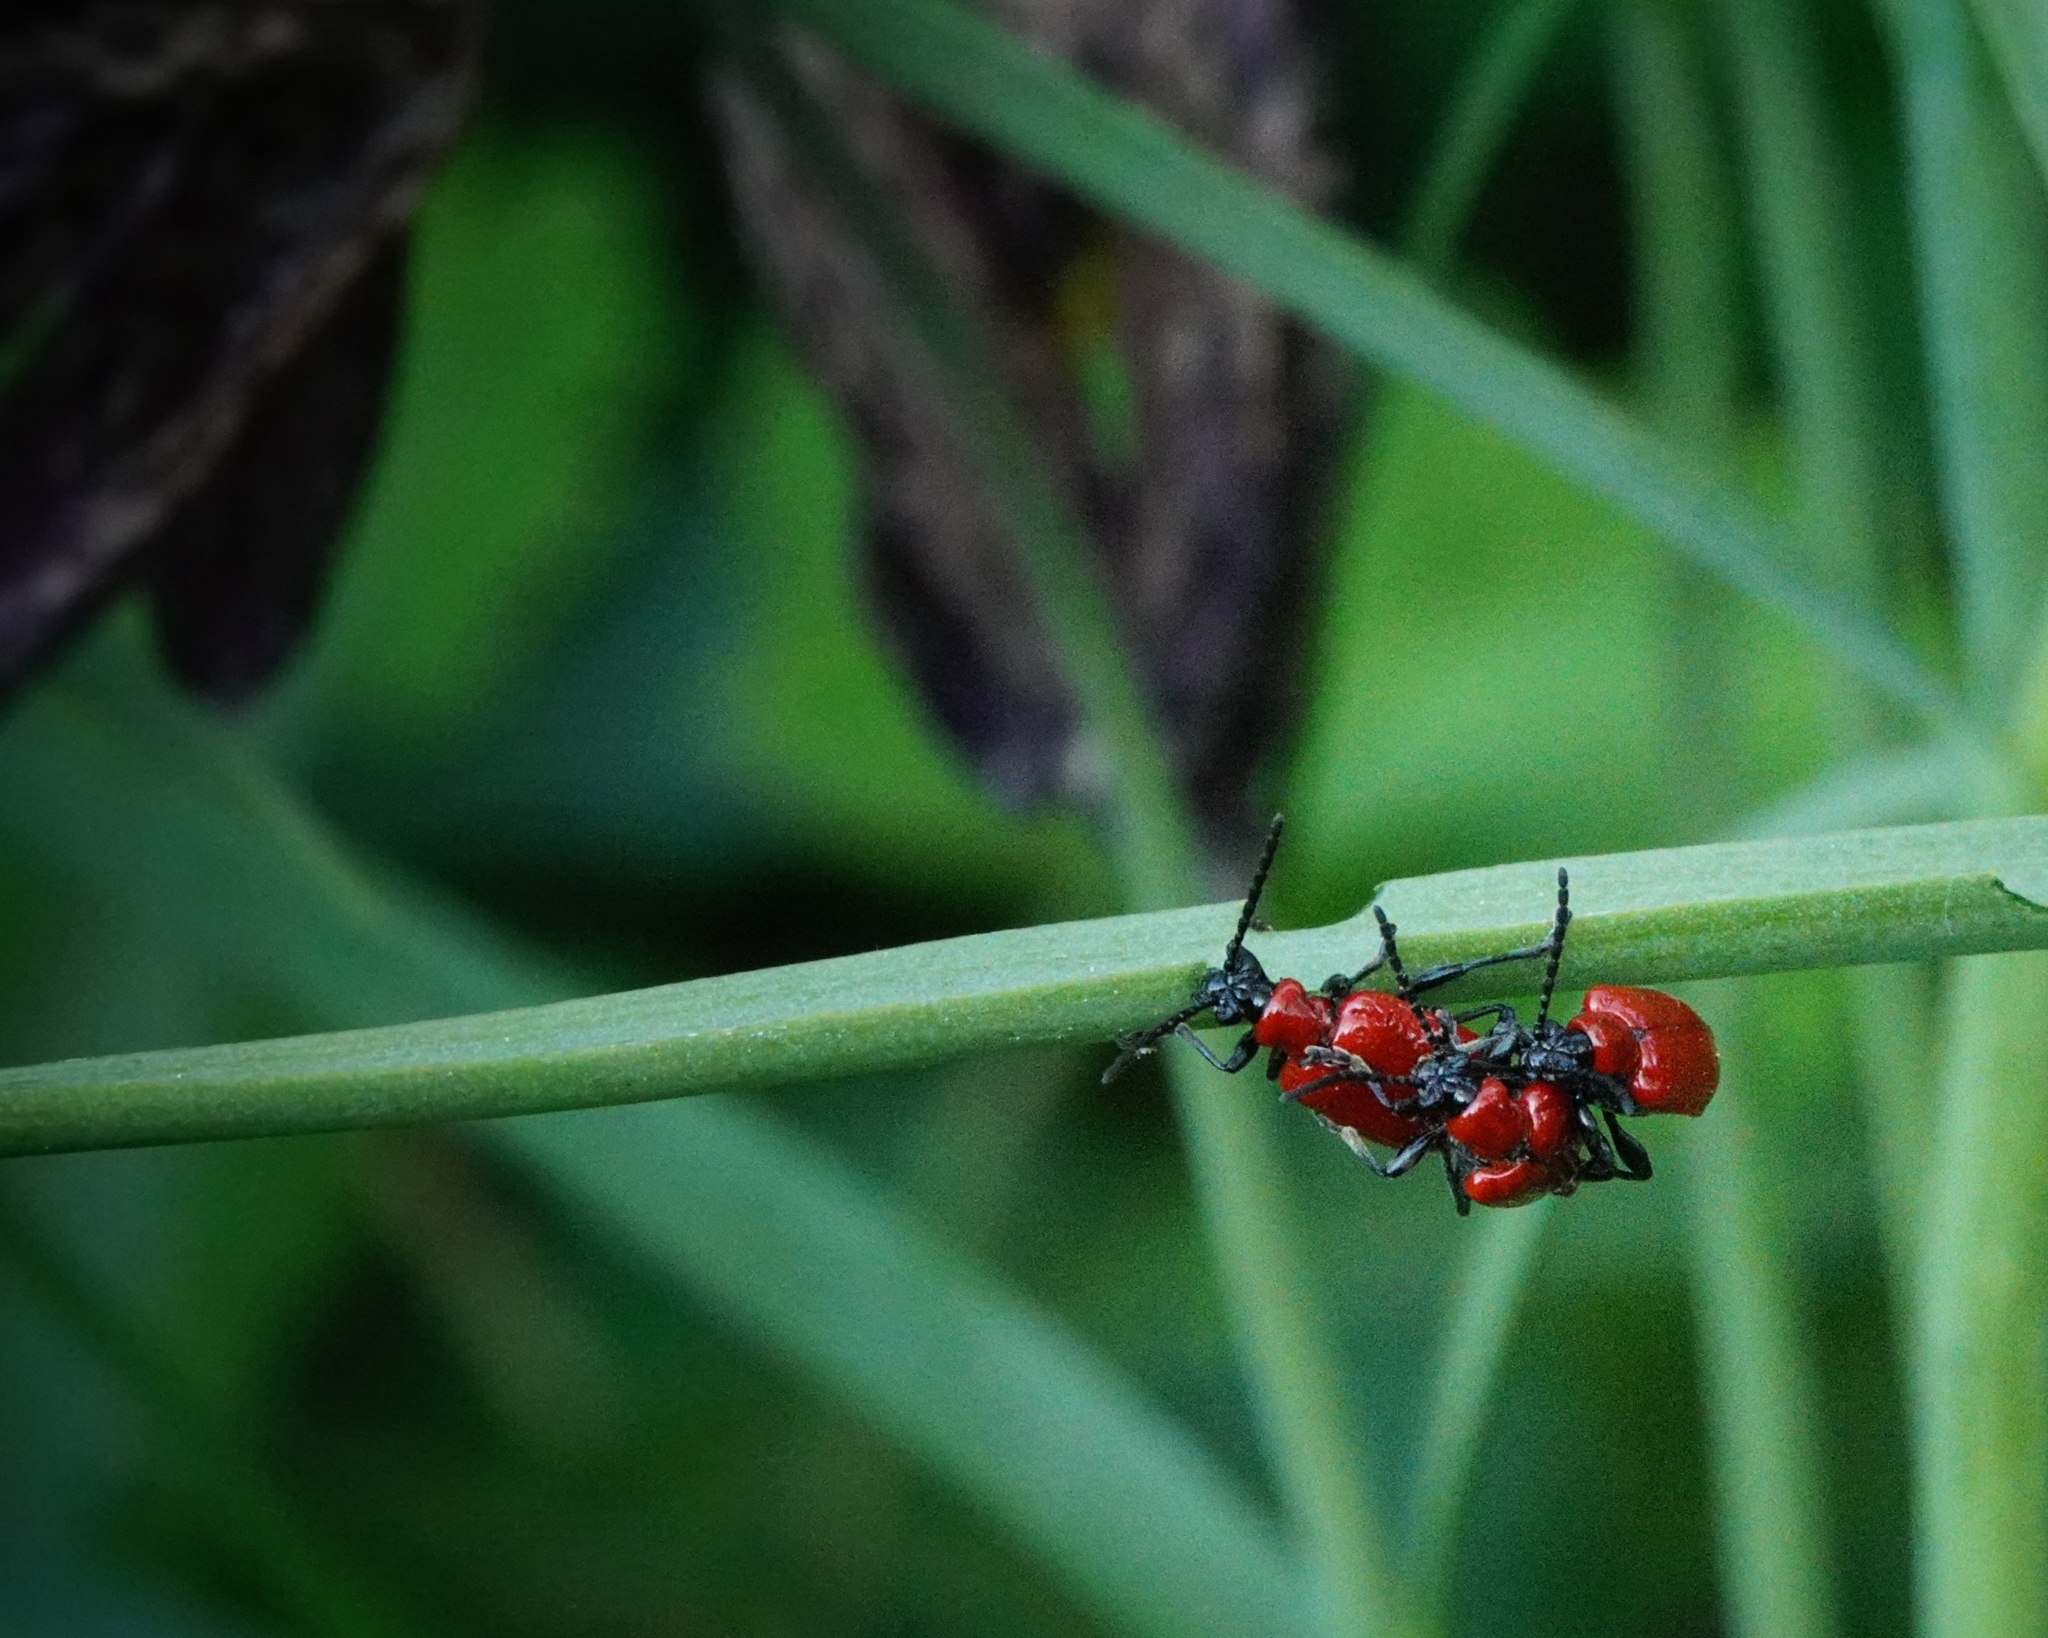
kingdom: Animalia
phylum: Arthropoda
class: Insecta
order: Coleoptera
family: Chrysomelidae
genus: Lilioceris
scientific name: Lilioceris lilii
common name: Lily beetle
